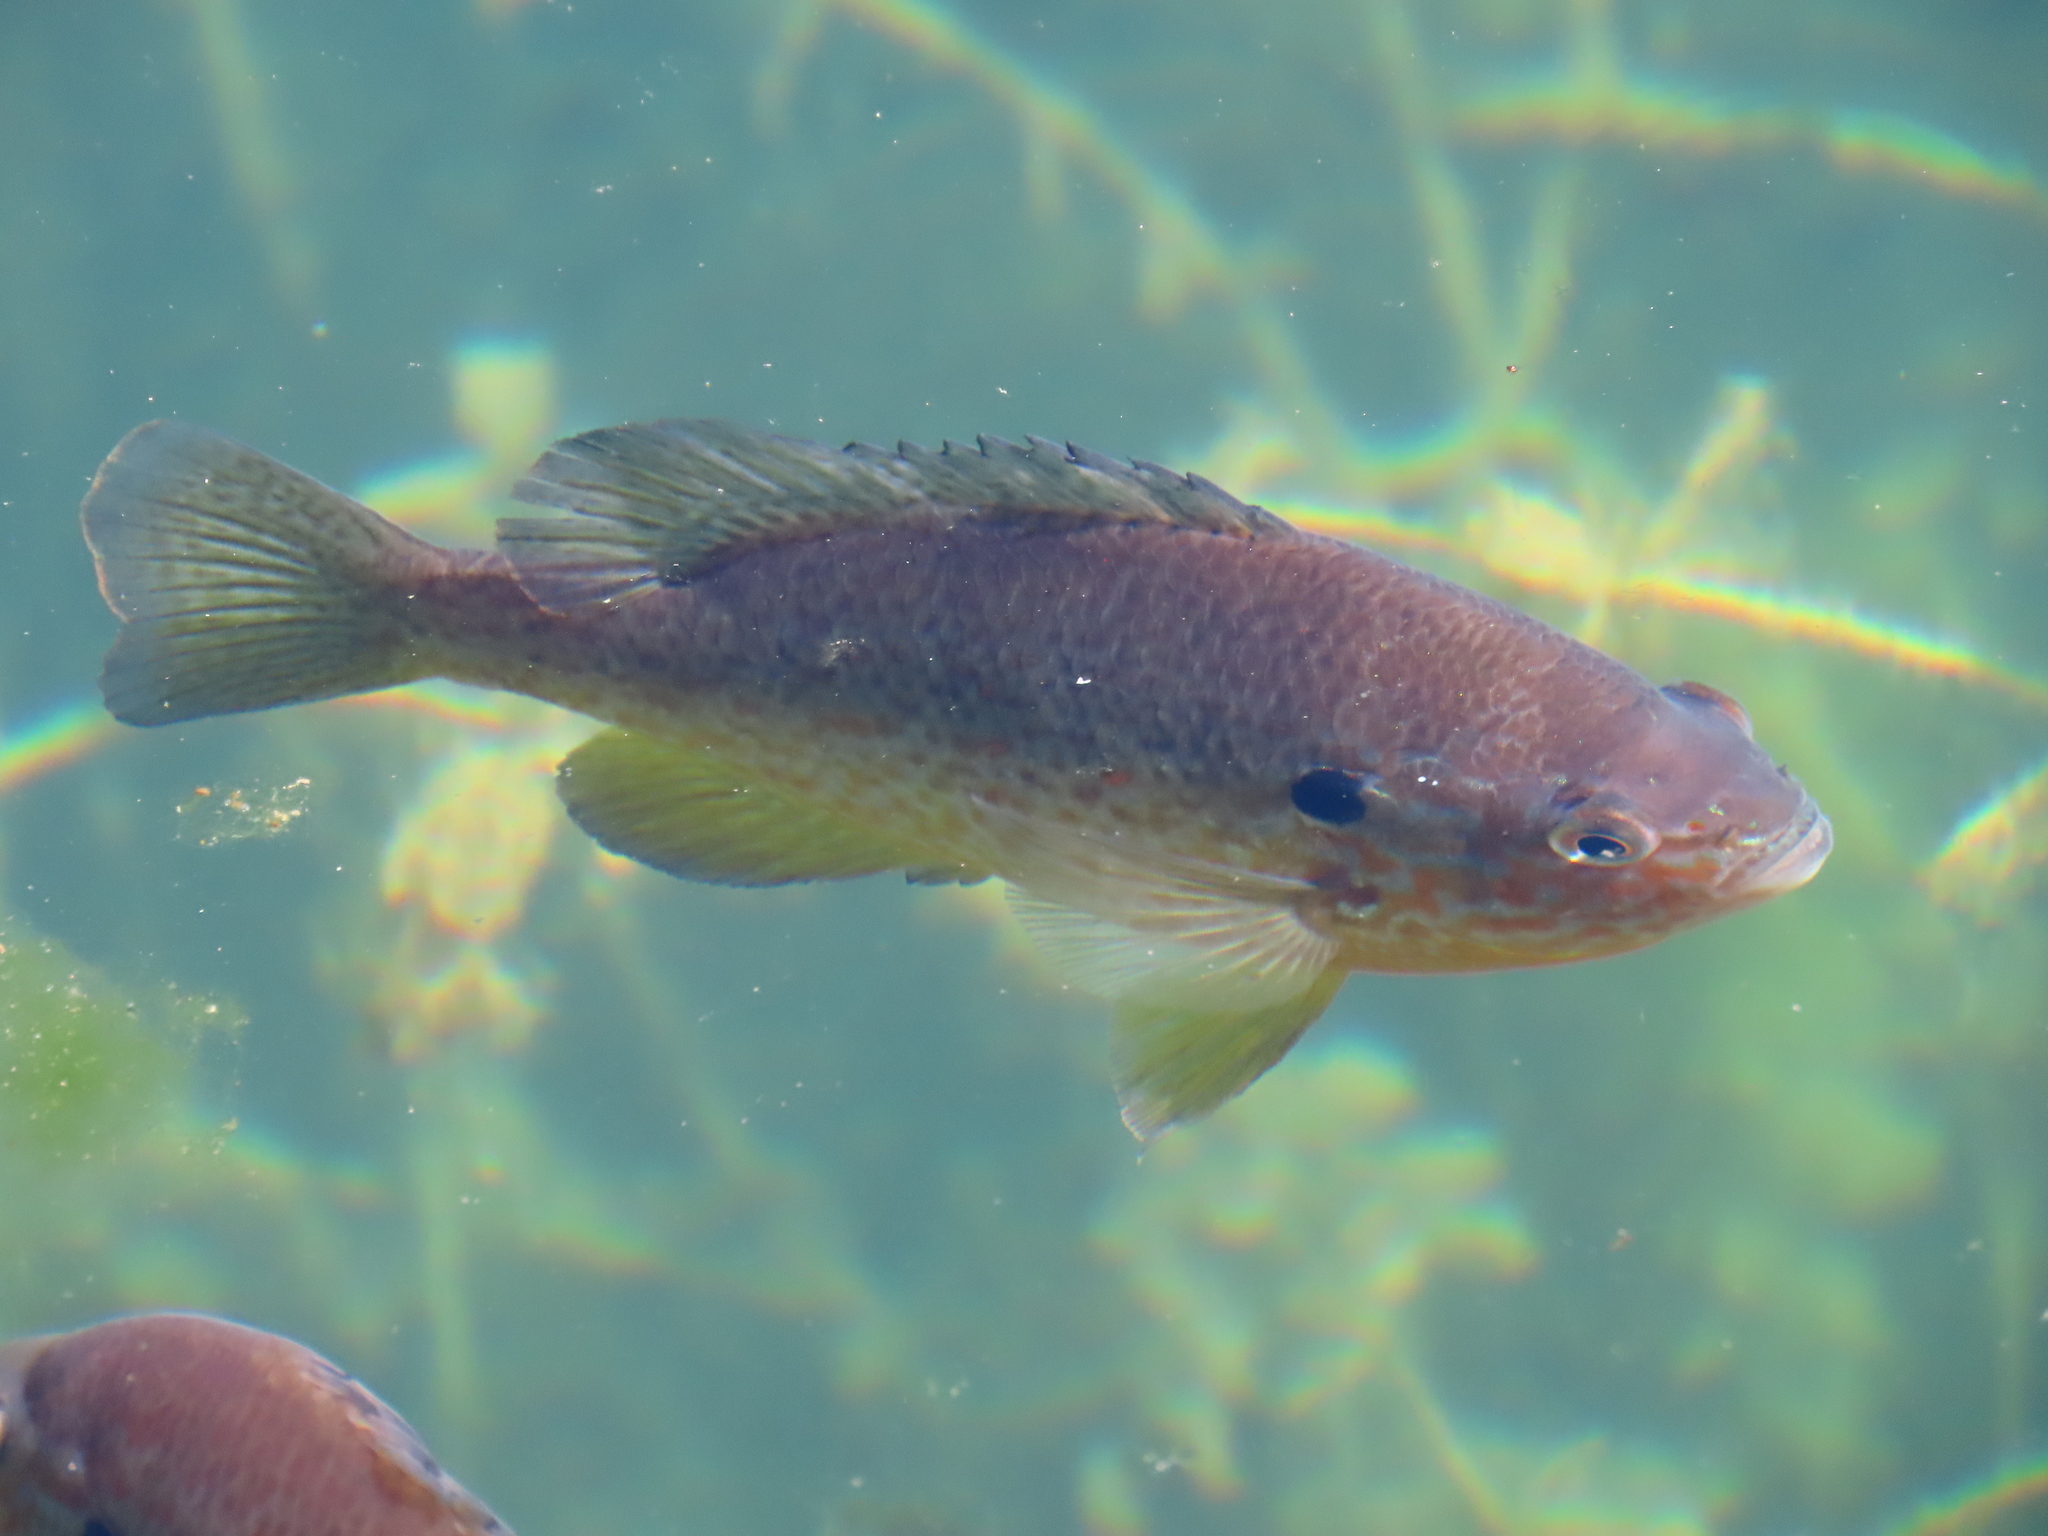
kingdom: Animalia
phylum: Chordata
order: Perciformes
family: Centrarchidae
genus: Lepomis
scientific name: Lepomis gibbosus
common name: Pumpkinseed
